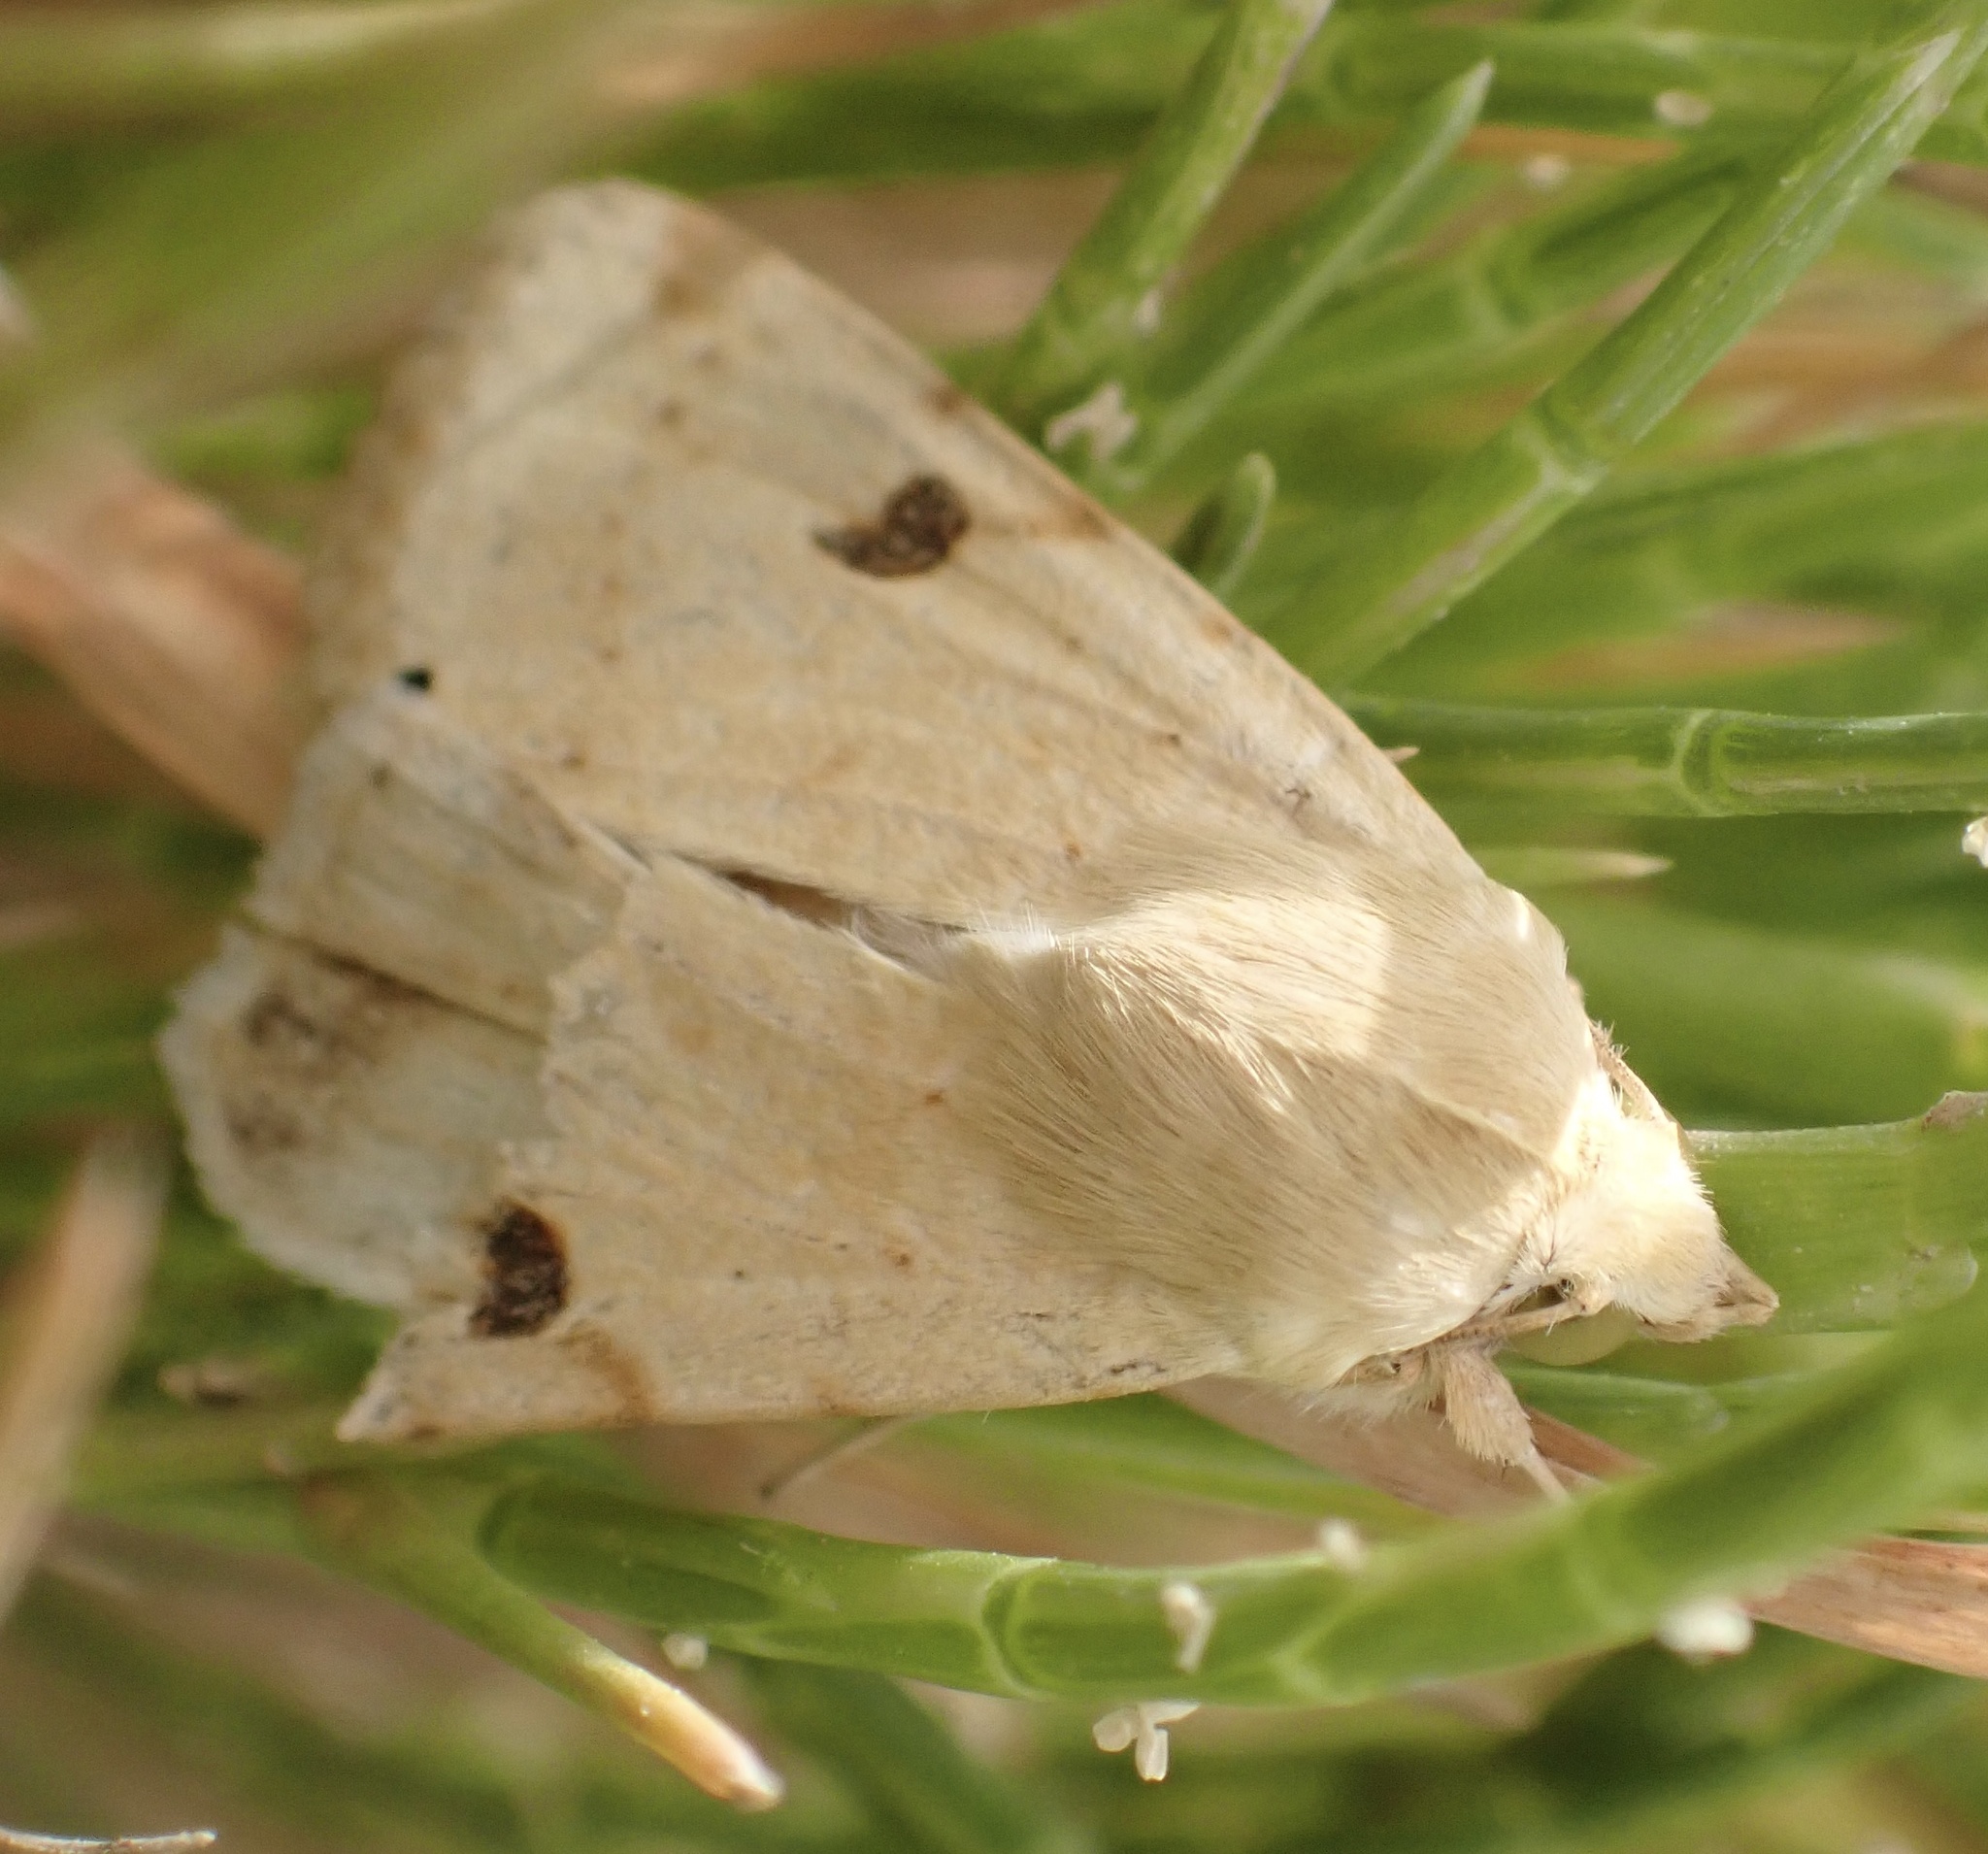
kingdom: Animalia
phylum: Arthropoda
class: Insecta
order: Lepidoptera
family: Noctuidae
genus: Heliothis
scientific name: Heliothis peltigera
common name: Bordered straw
